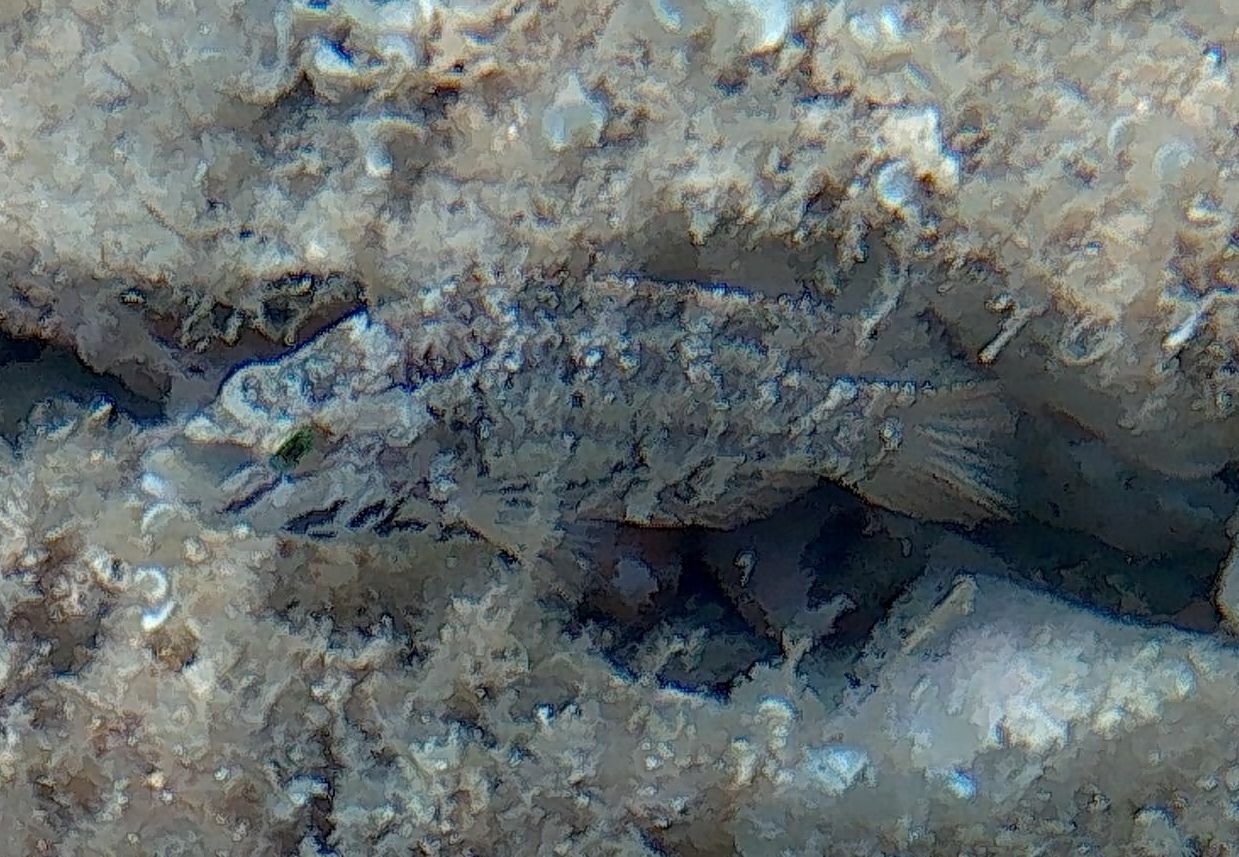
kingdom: Animalia
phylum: Chordata
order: Perciformes
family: Labridae
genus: Symphodus
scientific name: Symphodus roissali
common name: Five-spotted wrasse
